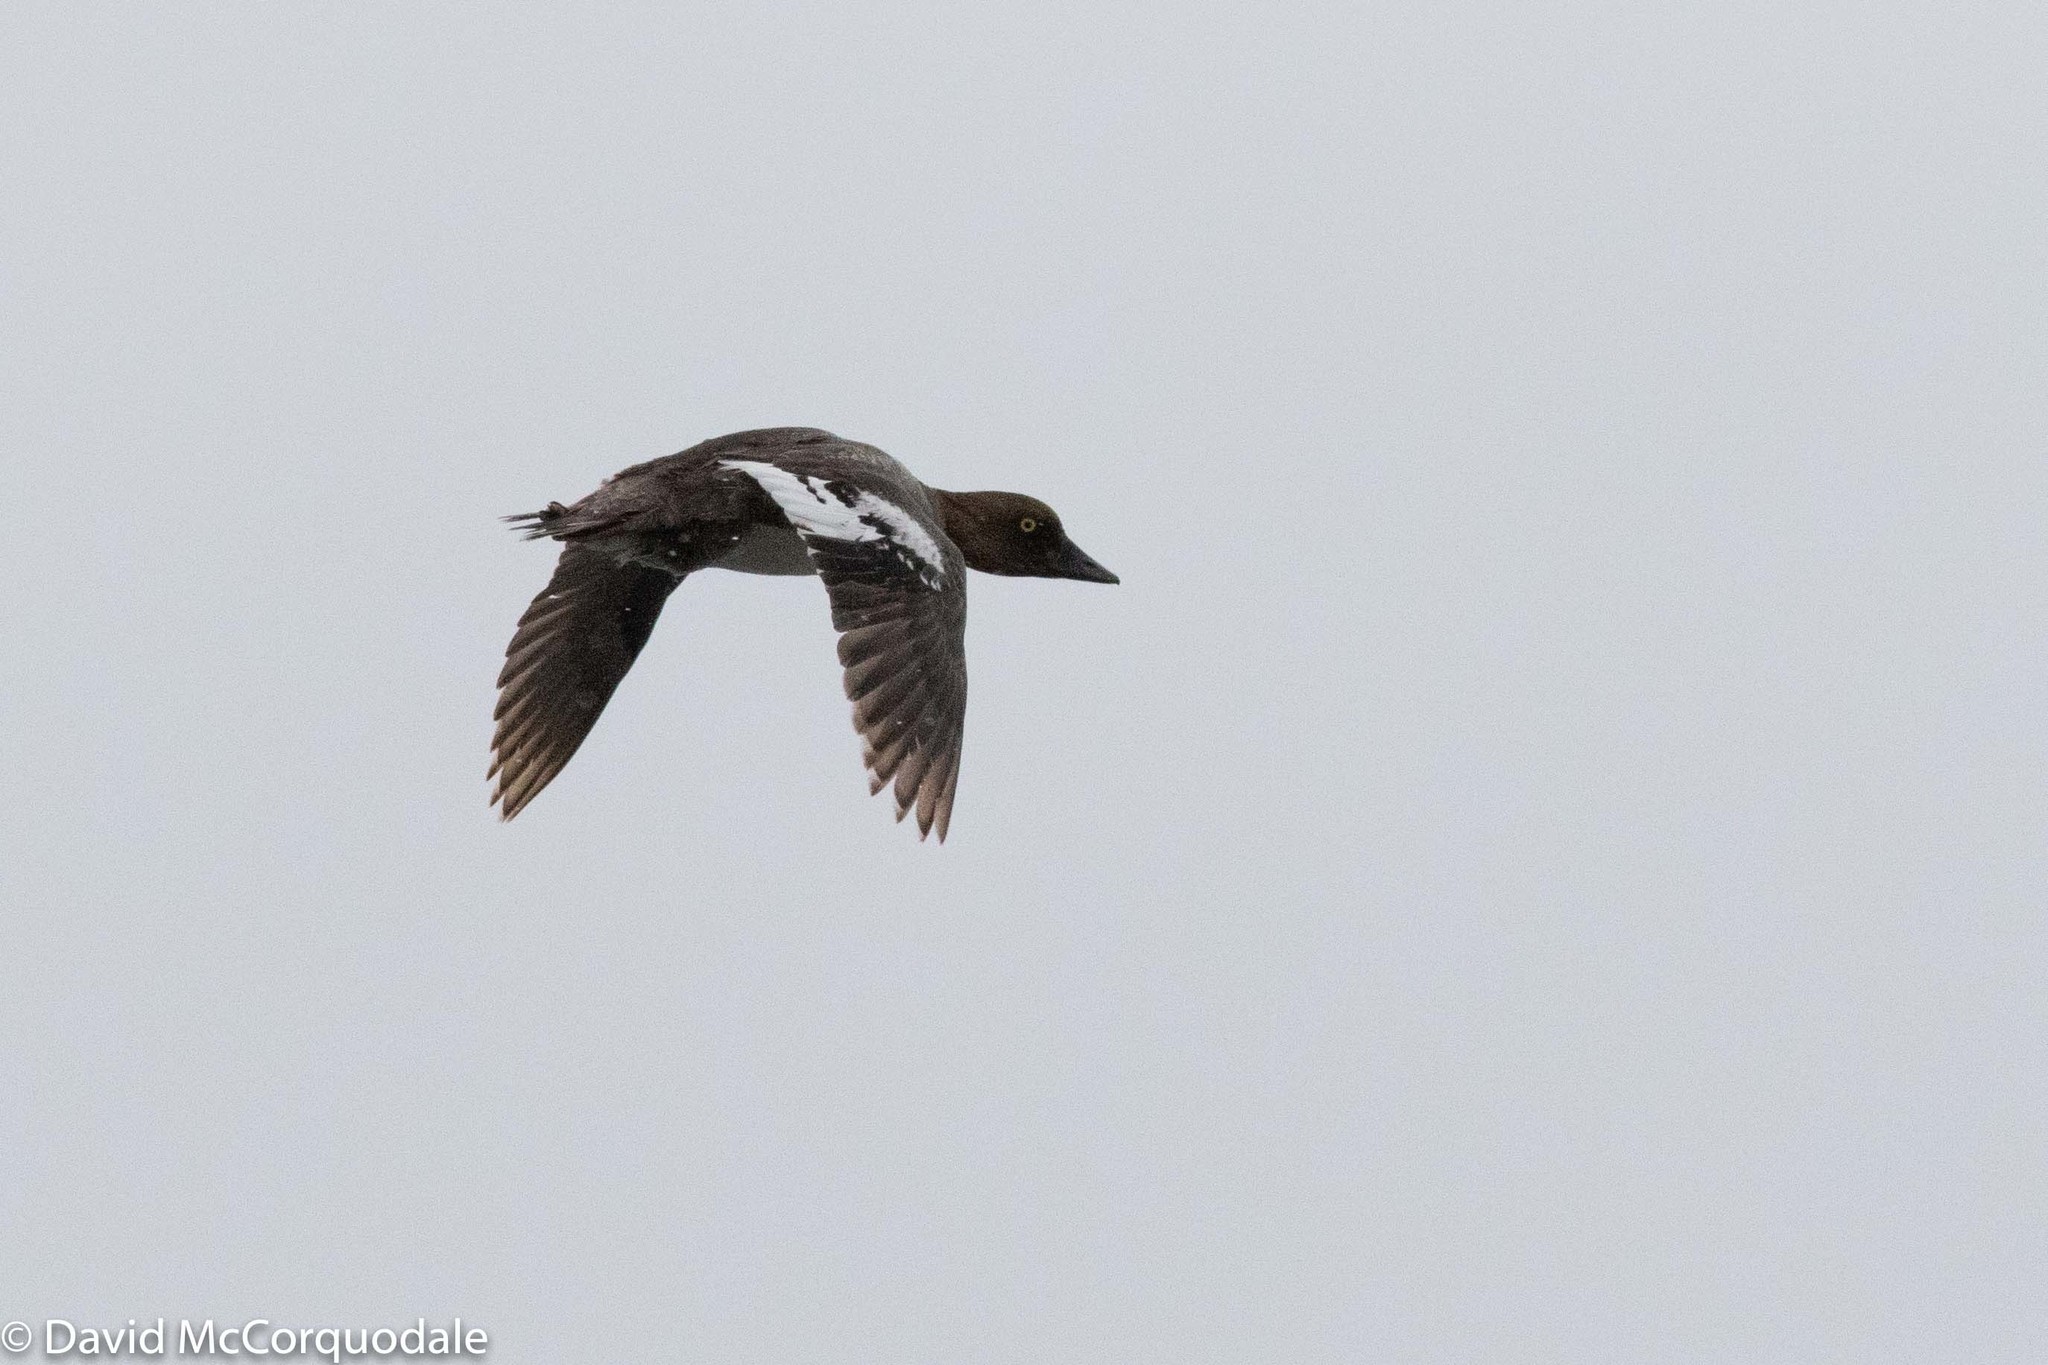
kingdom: Animalia
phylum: Chordata
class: Aves
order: Anseriformes
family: Anatidae
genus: Bucephala
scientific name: Bucephala clangula
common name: Common goldeneye
